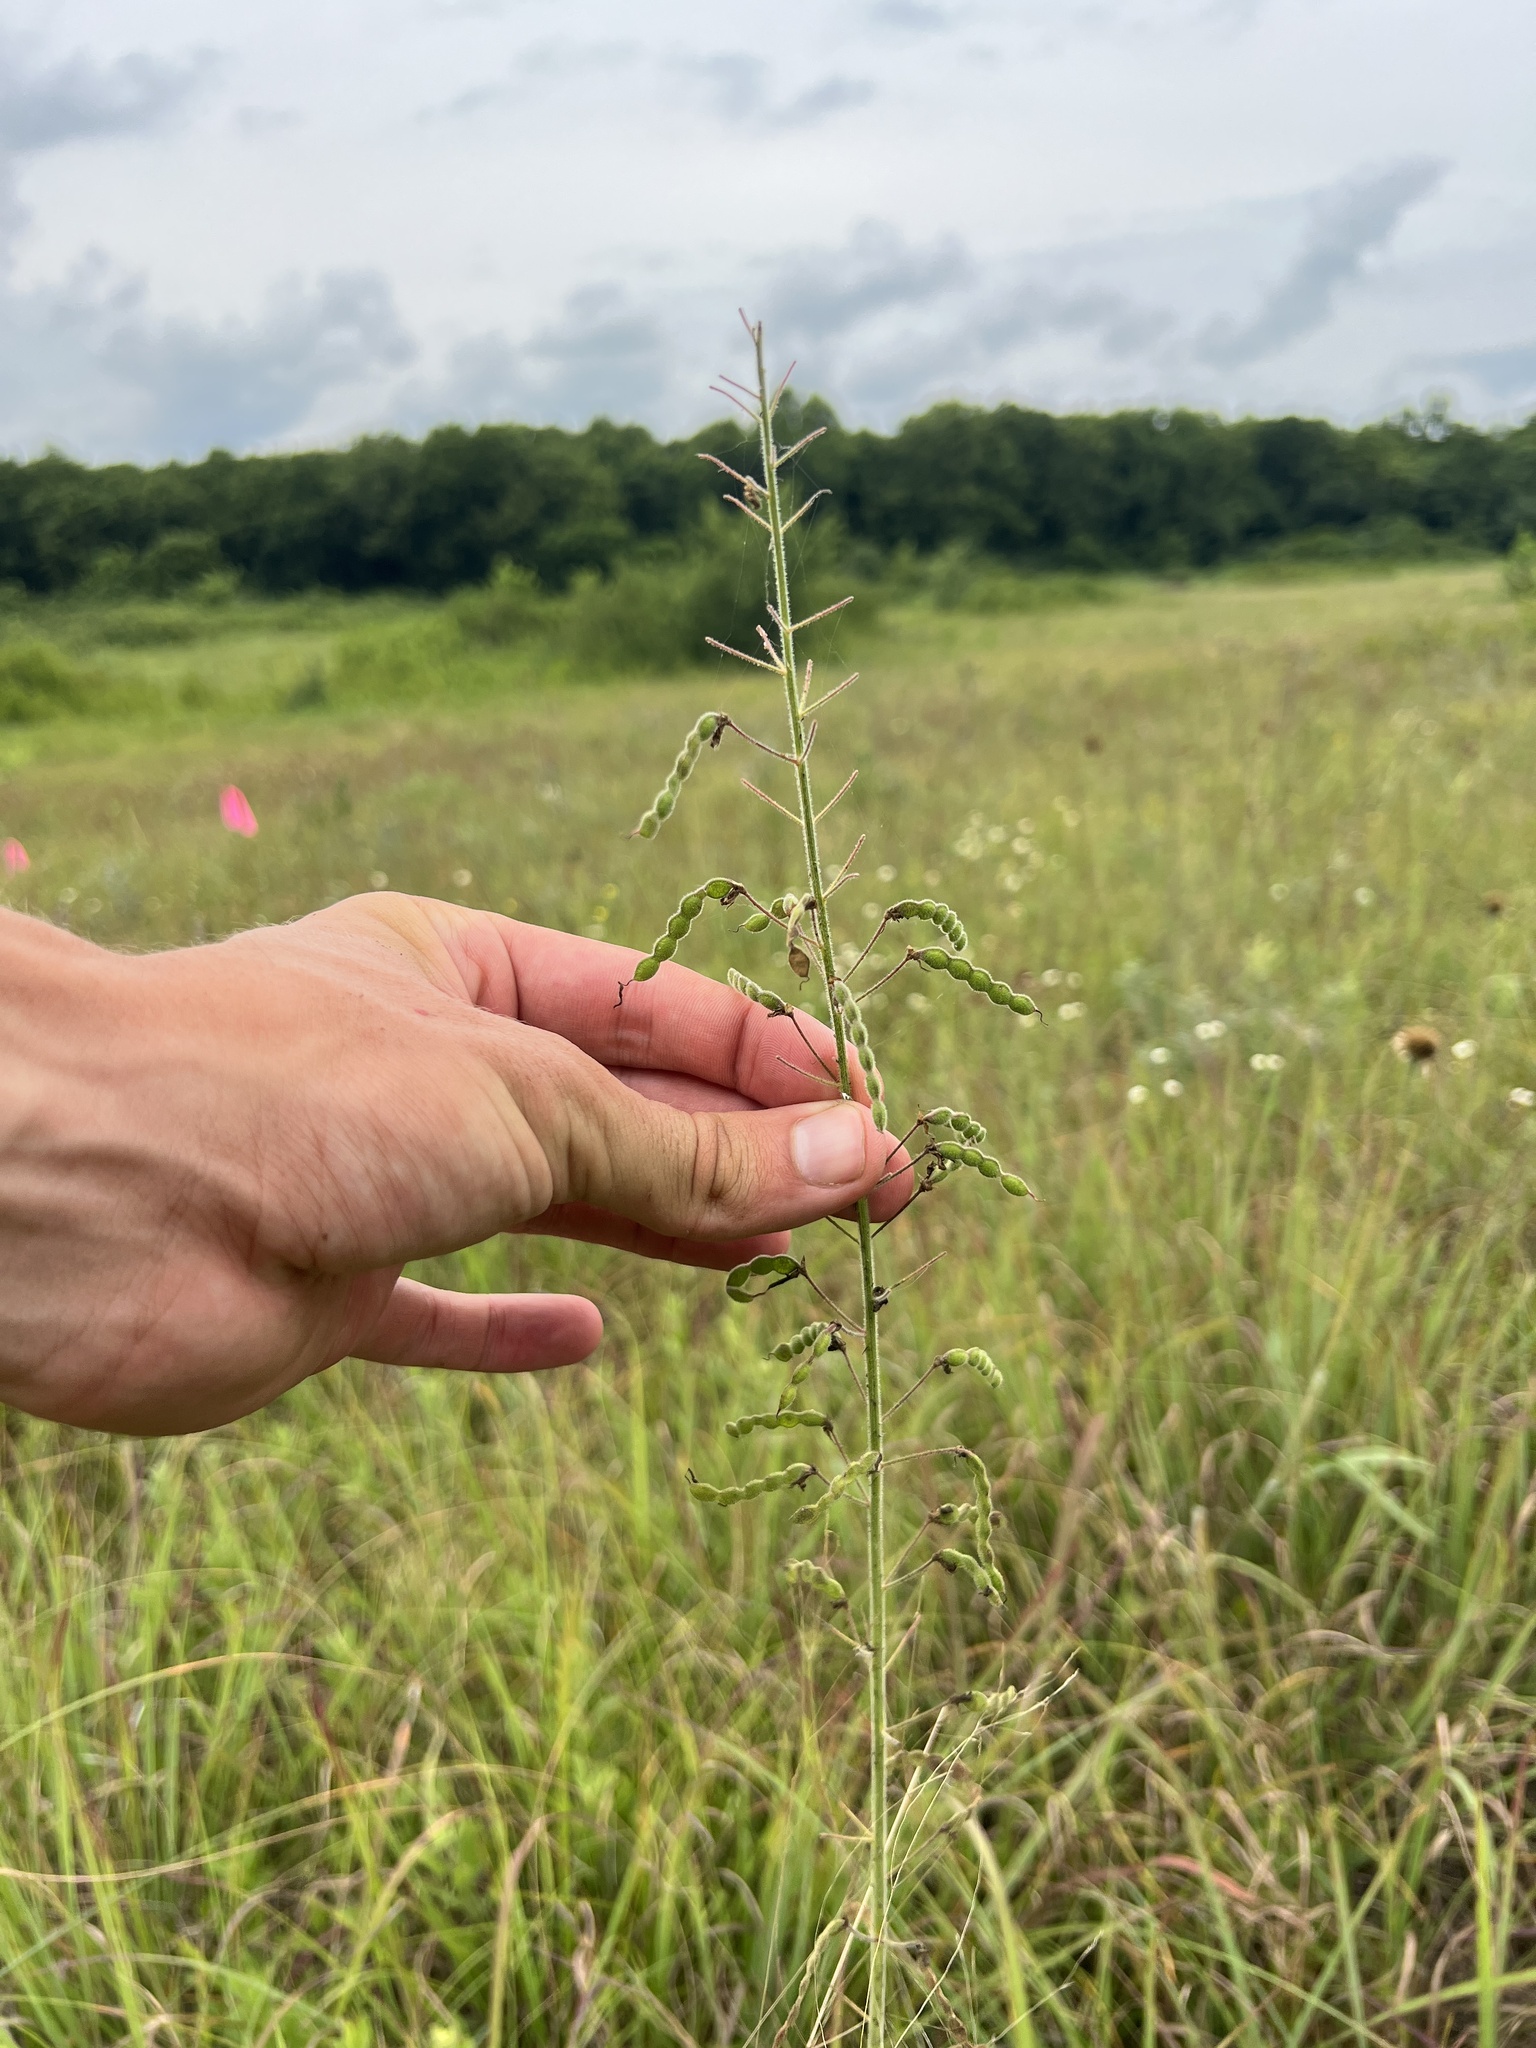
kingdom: Plantae
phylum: Tracheophyta
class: Magnoliopsida
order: Fabales
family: Fabaceae
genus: Desmodium
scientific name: Desmodium illinoense
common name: Illinois tick-clover
